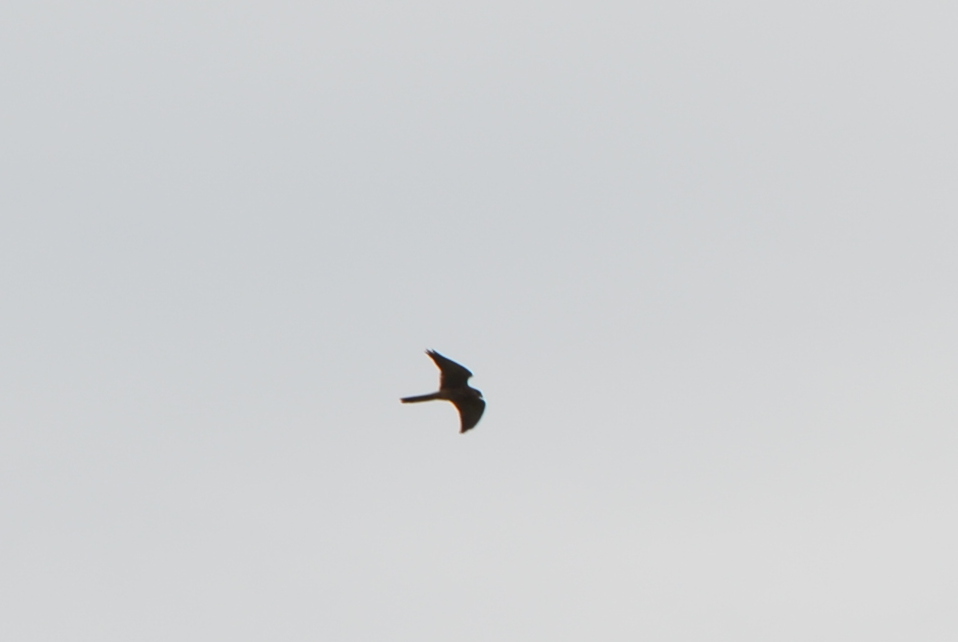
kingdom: Animalia
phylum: Chordata
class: Aves
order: Falconiformes
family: Falconidae
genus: Falco
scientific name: Falco tinnunculus
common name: Common kestrel
